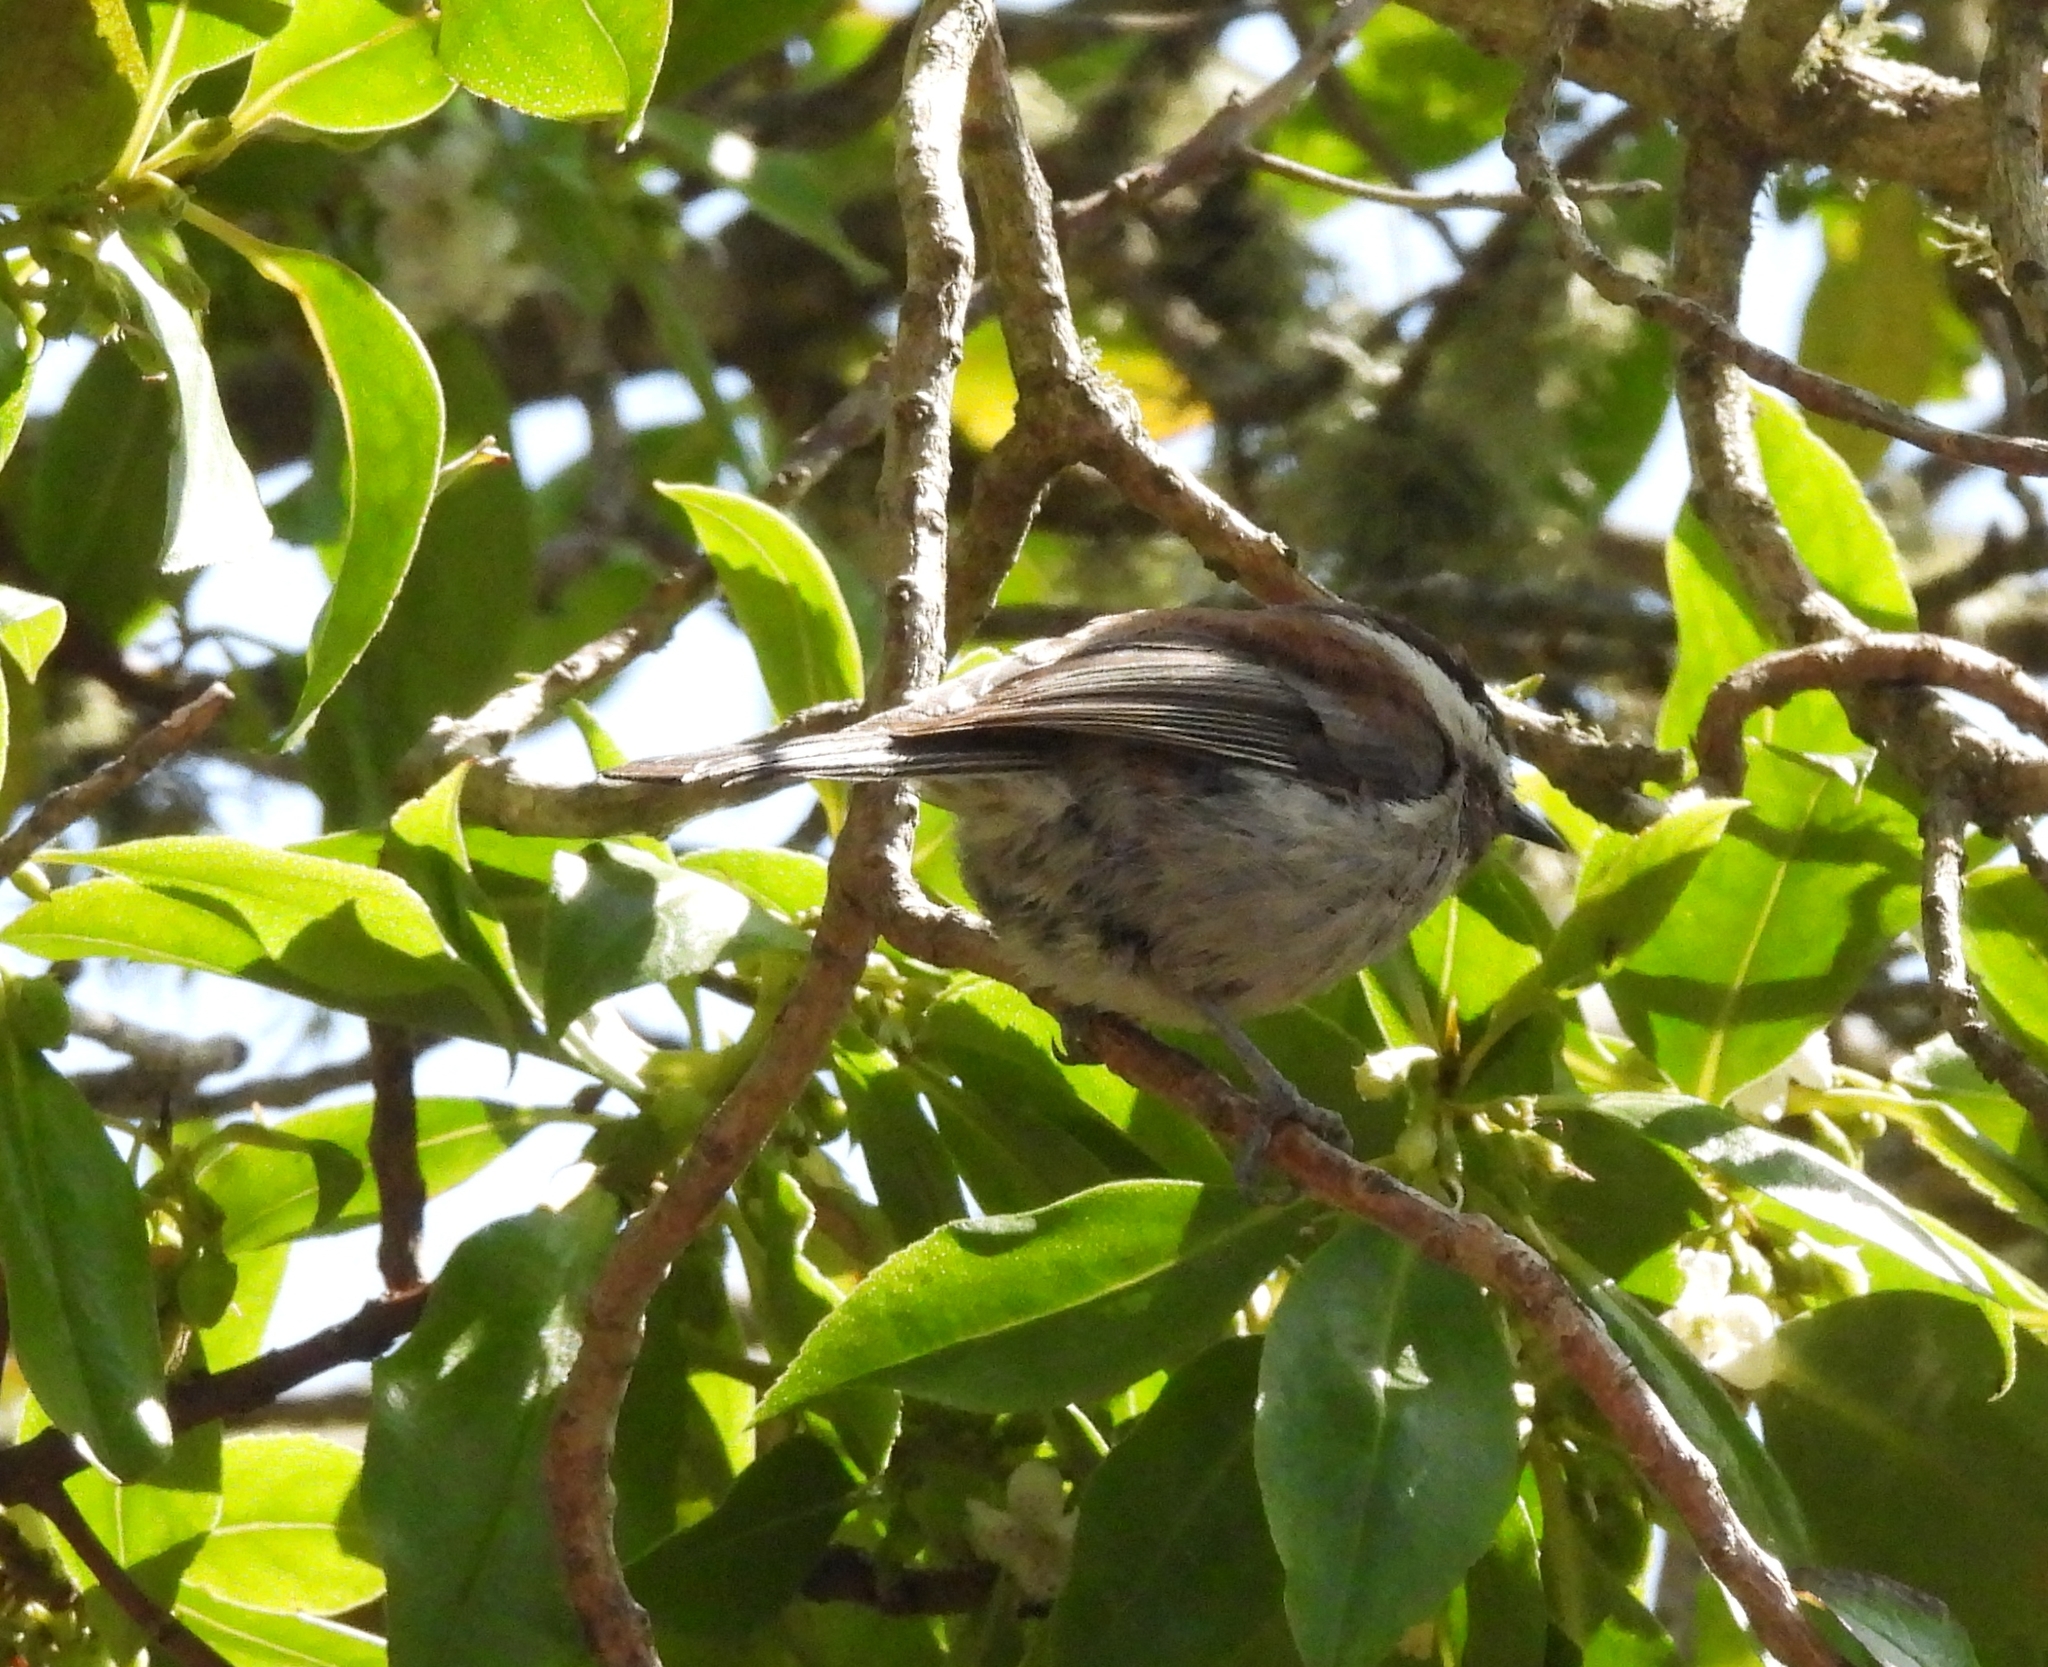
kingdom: Animalia
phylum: Chordata
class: Aves
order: Passeriformes
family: Paridae
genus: Poecile
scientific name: Poecile rufescens
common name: Chestnut-backed chickadee
